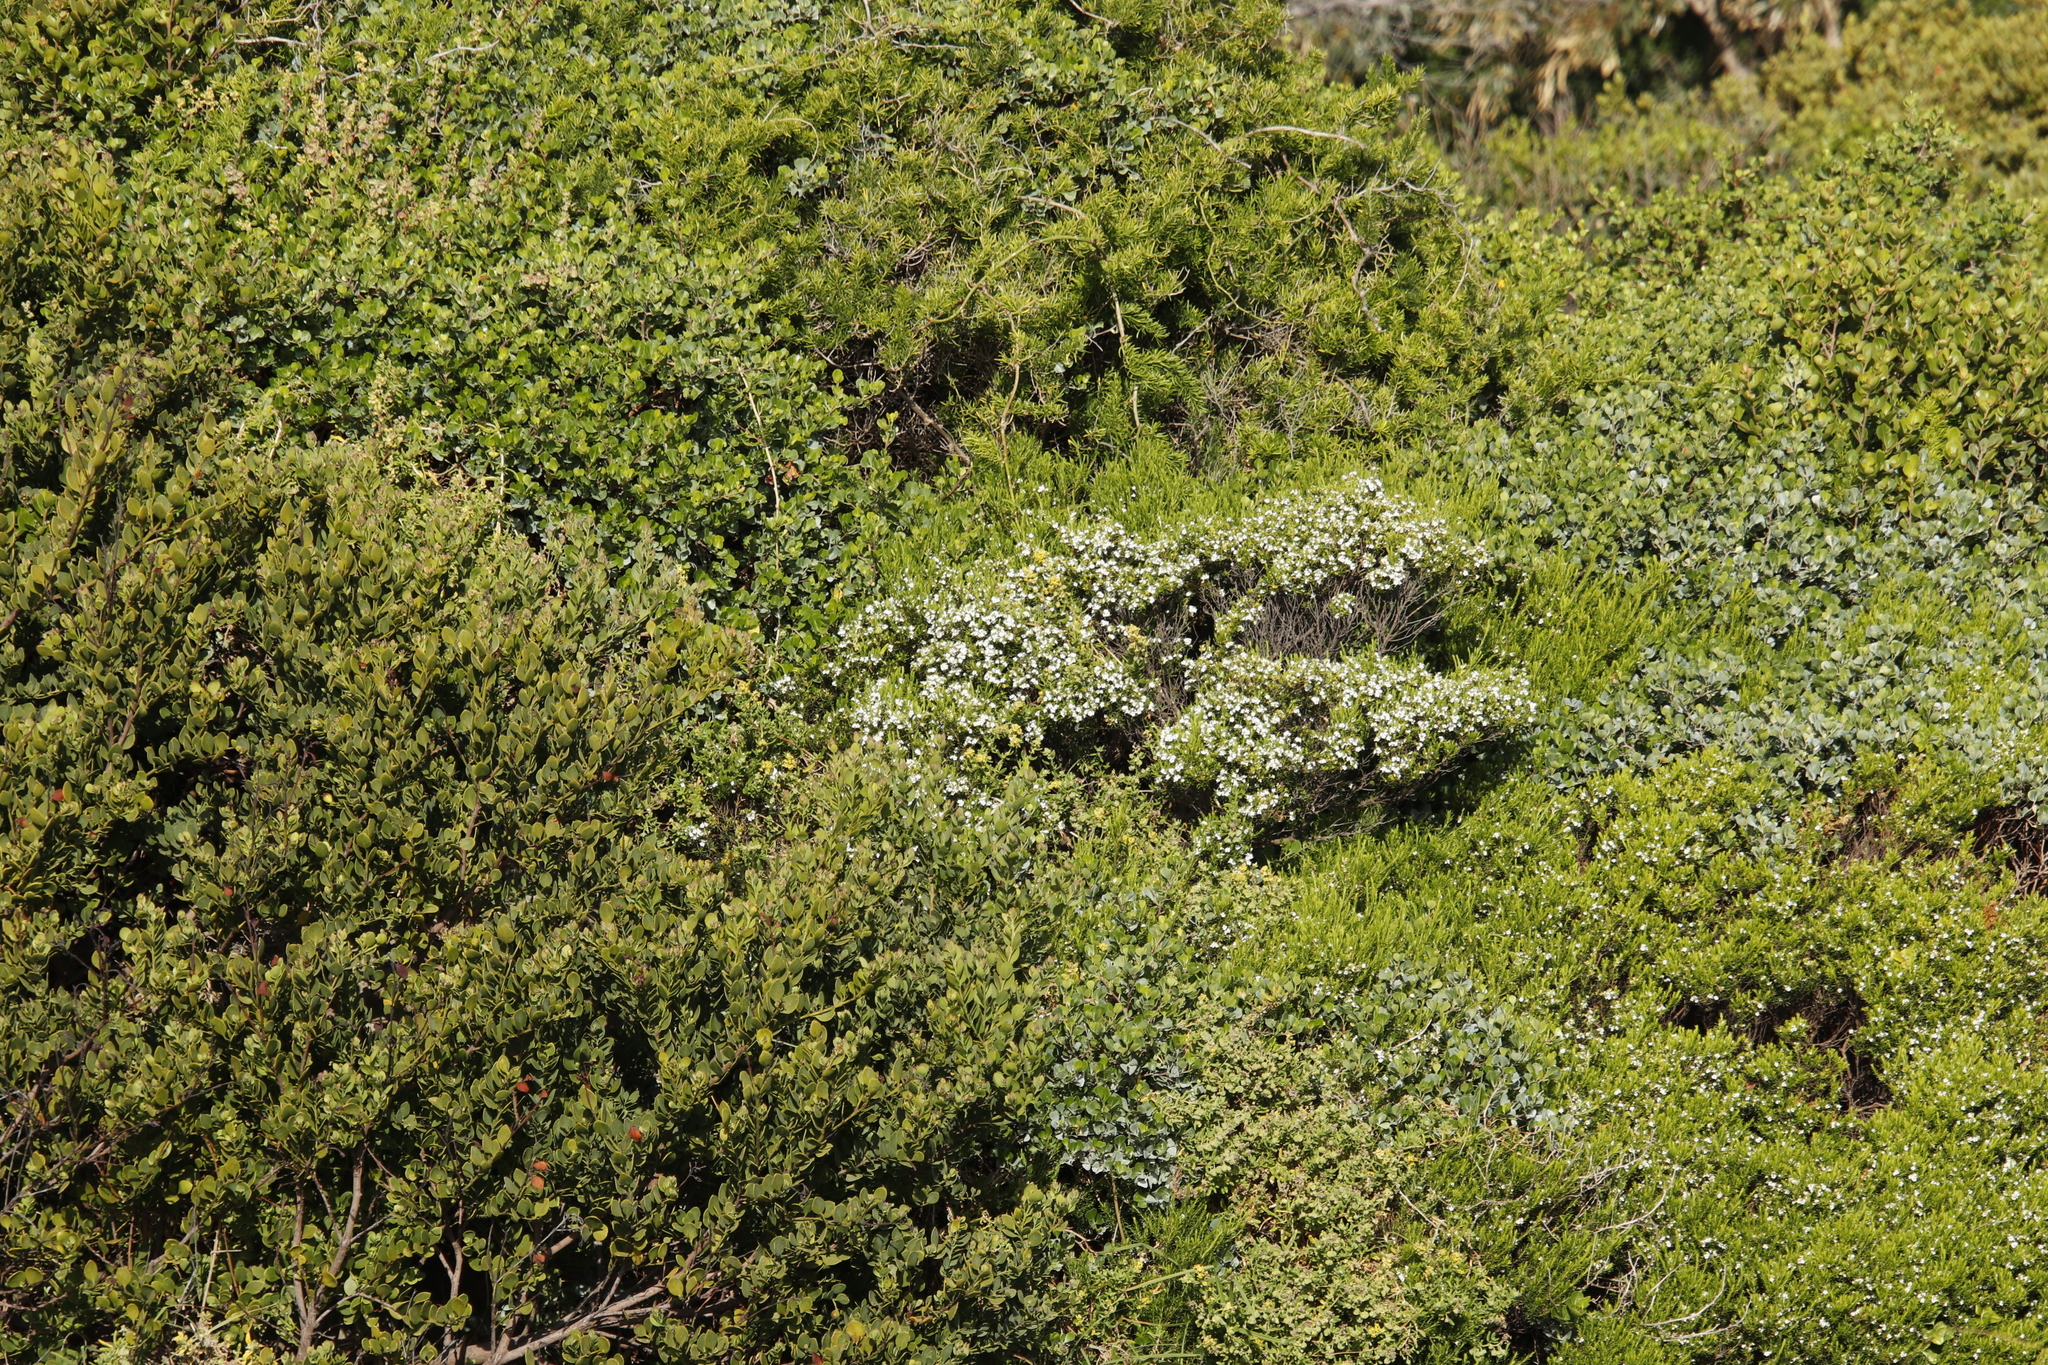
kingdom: Plantae
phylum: Tracheophyta
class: Magnoliopsida
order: Sapindales
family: Rutaceae
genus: Coleonema
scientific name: Coleonema album
